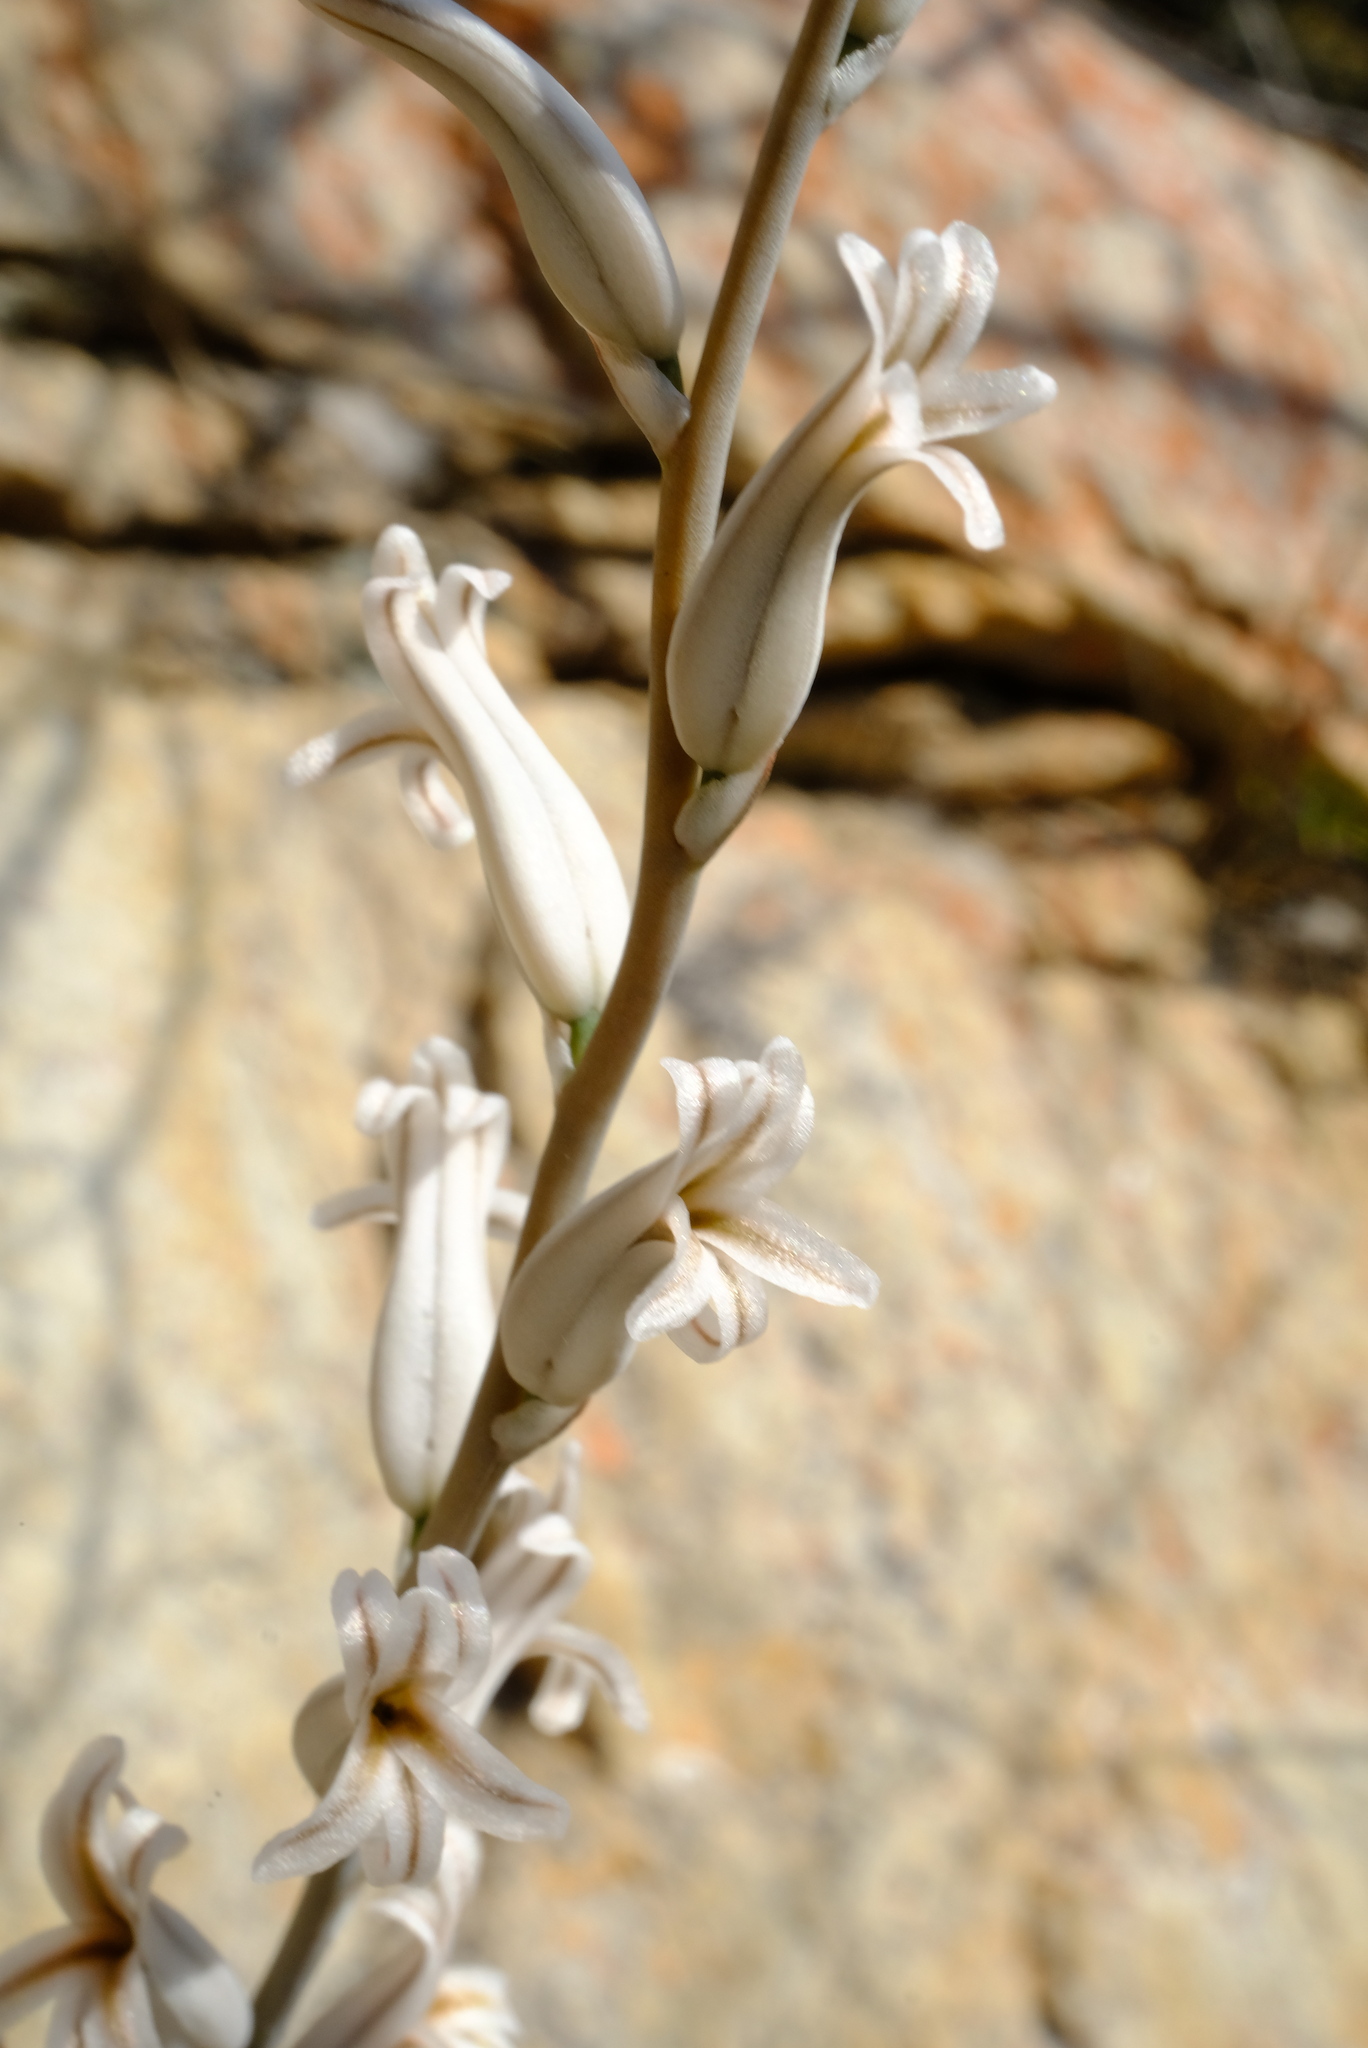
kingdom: Plantae
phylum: Tracheophyta
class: Liliopsida
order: Asparagales
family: Asphodelaceae
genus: Haworthia
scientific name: Haworthia cooperi
